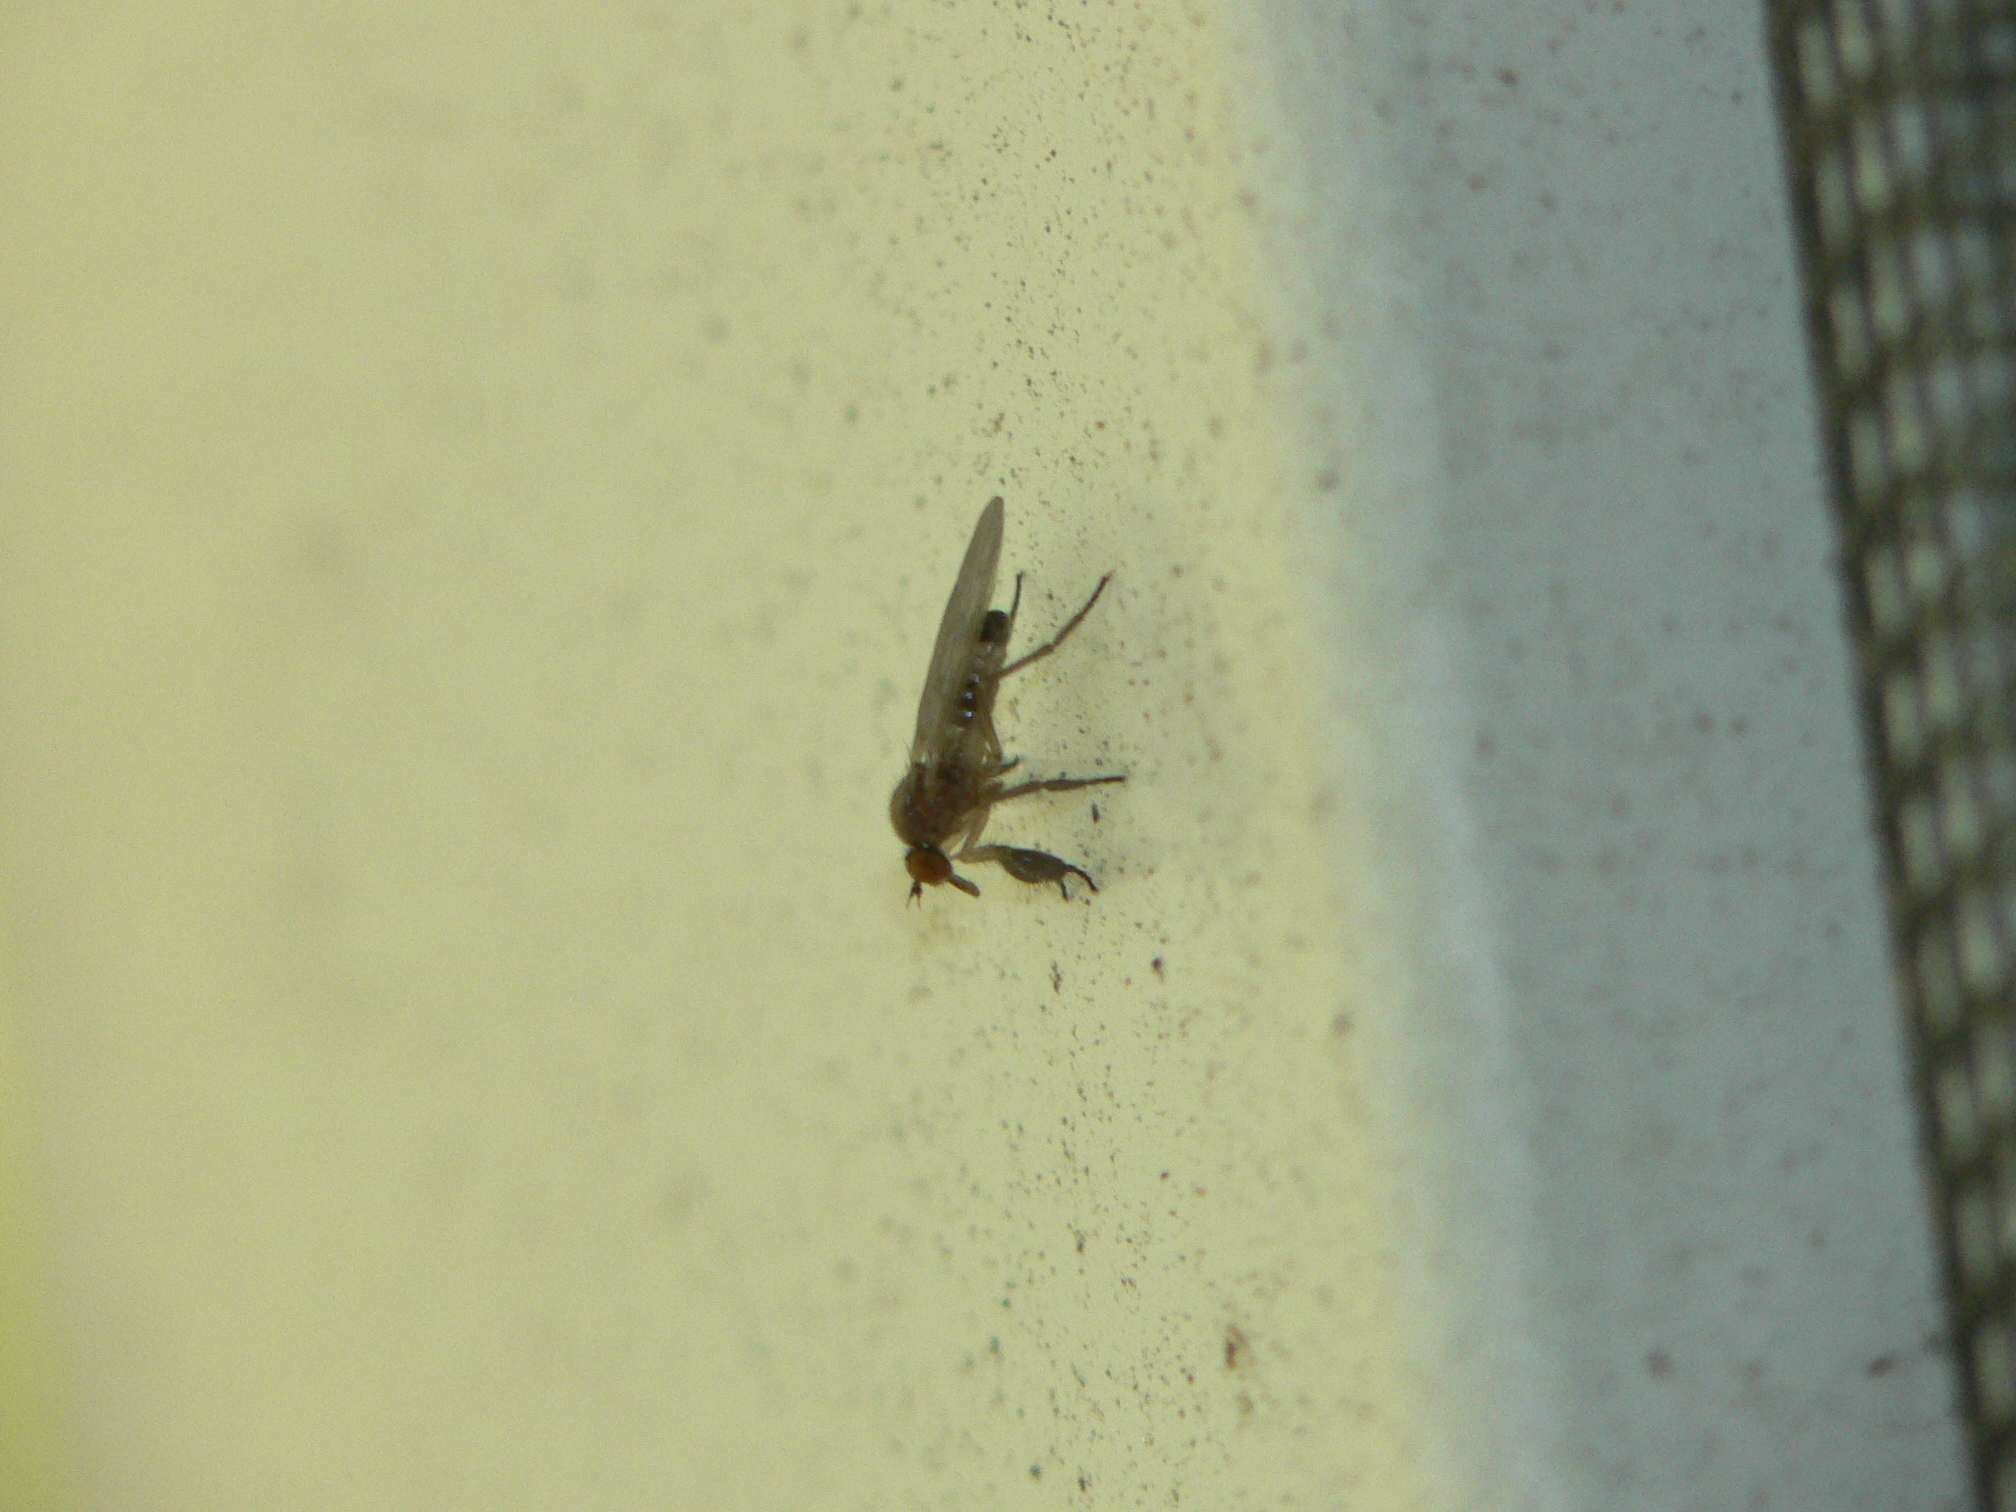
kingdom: Animalia
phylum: Arthropoda
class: Insecta
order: Diptera
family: Empididae
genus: Hilara
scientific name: Hilara seriata
